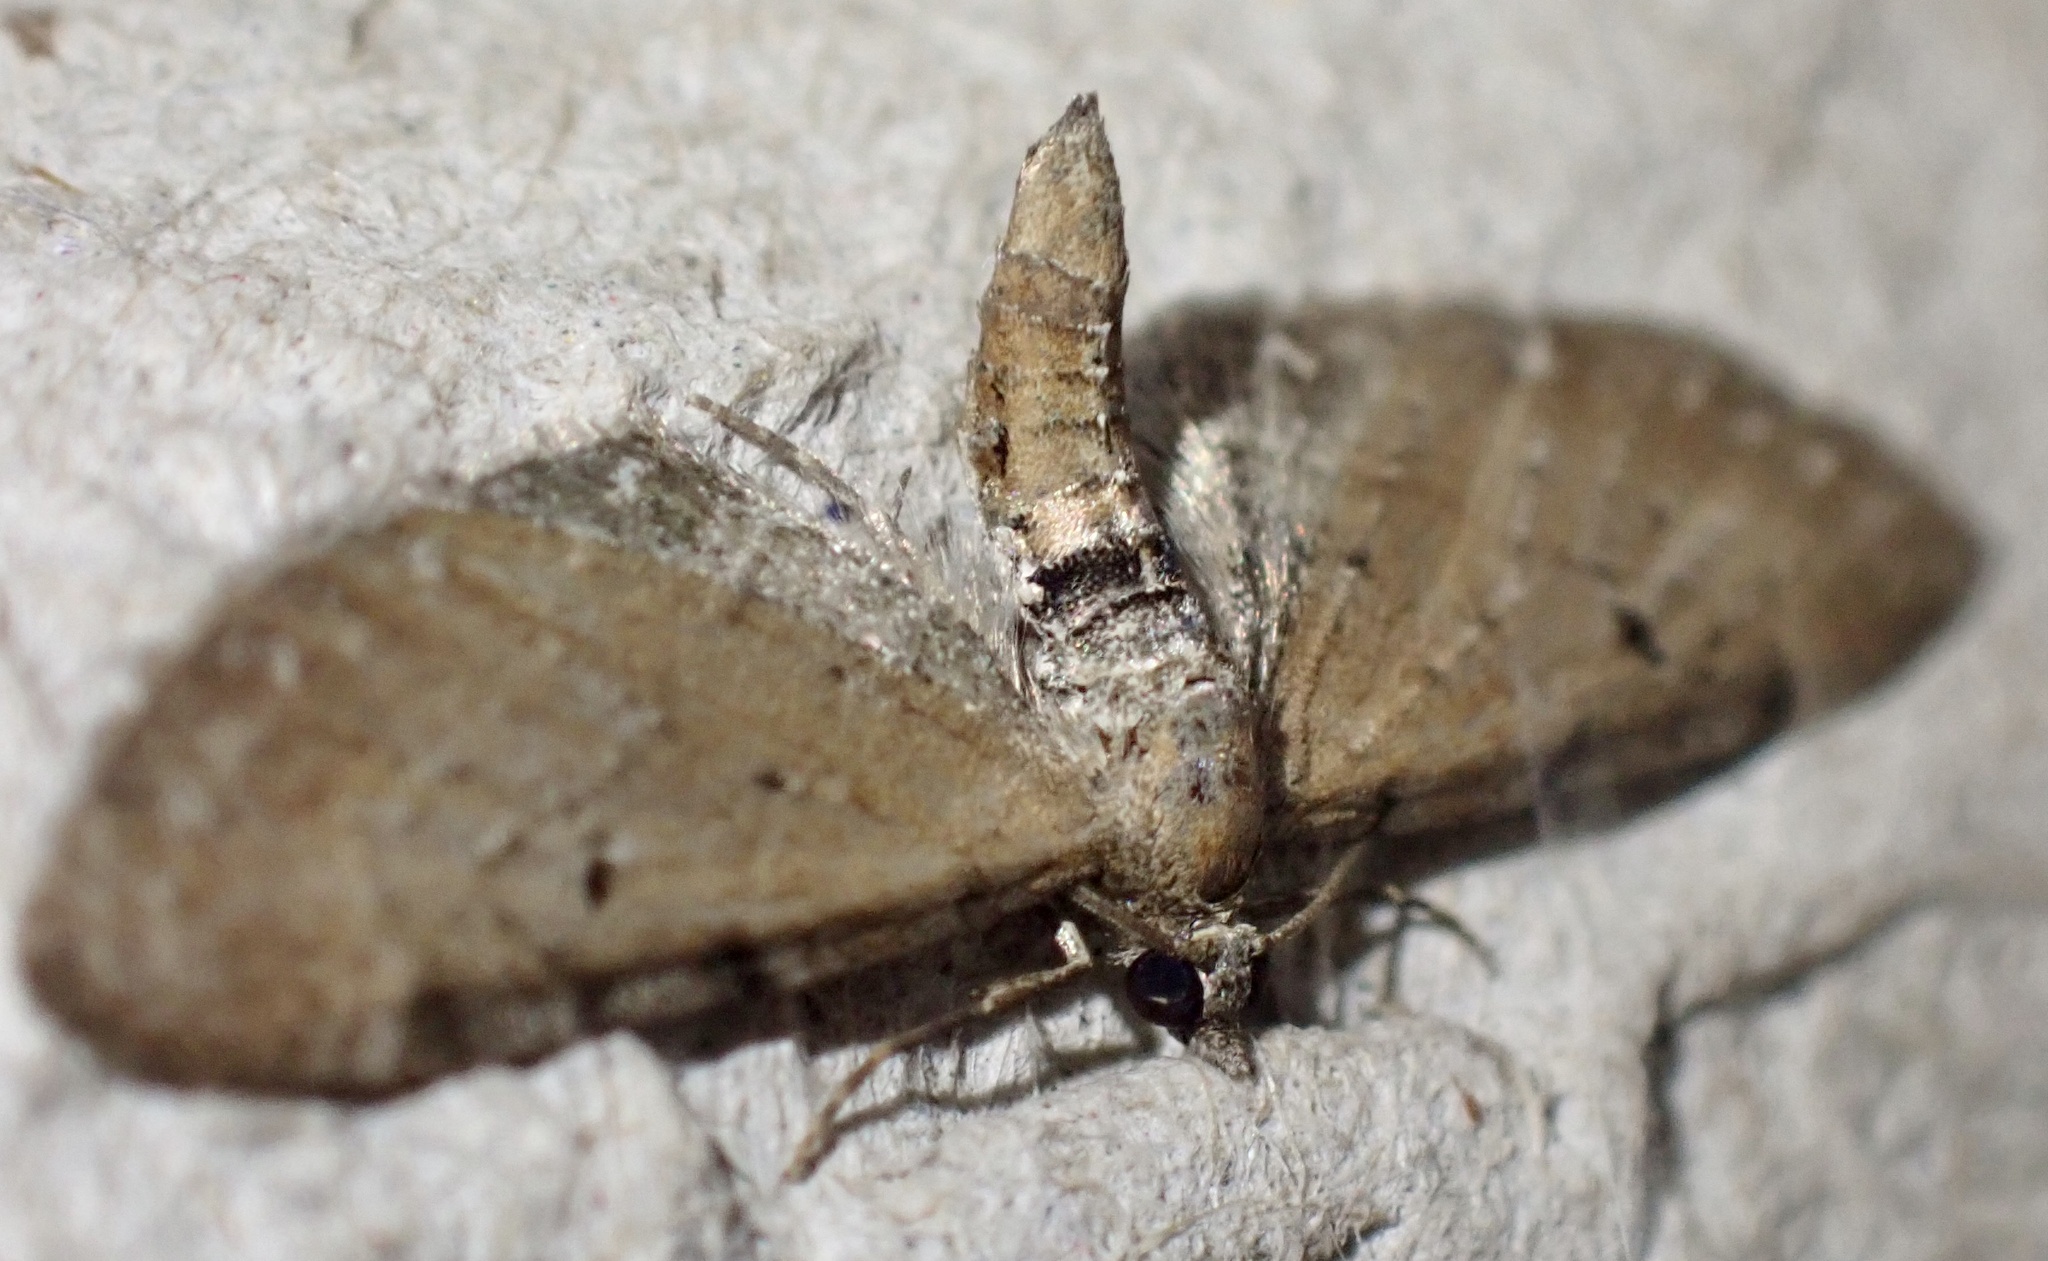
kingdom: Animalia
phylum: Arthropoda
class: Insecta
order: Lepidoptera
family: Geometridae
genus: Eupithecia
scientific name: Eupithecia absinthiata
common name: Wormwood pug
